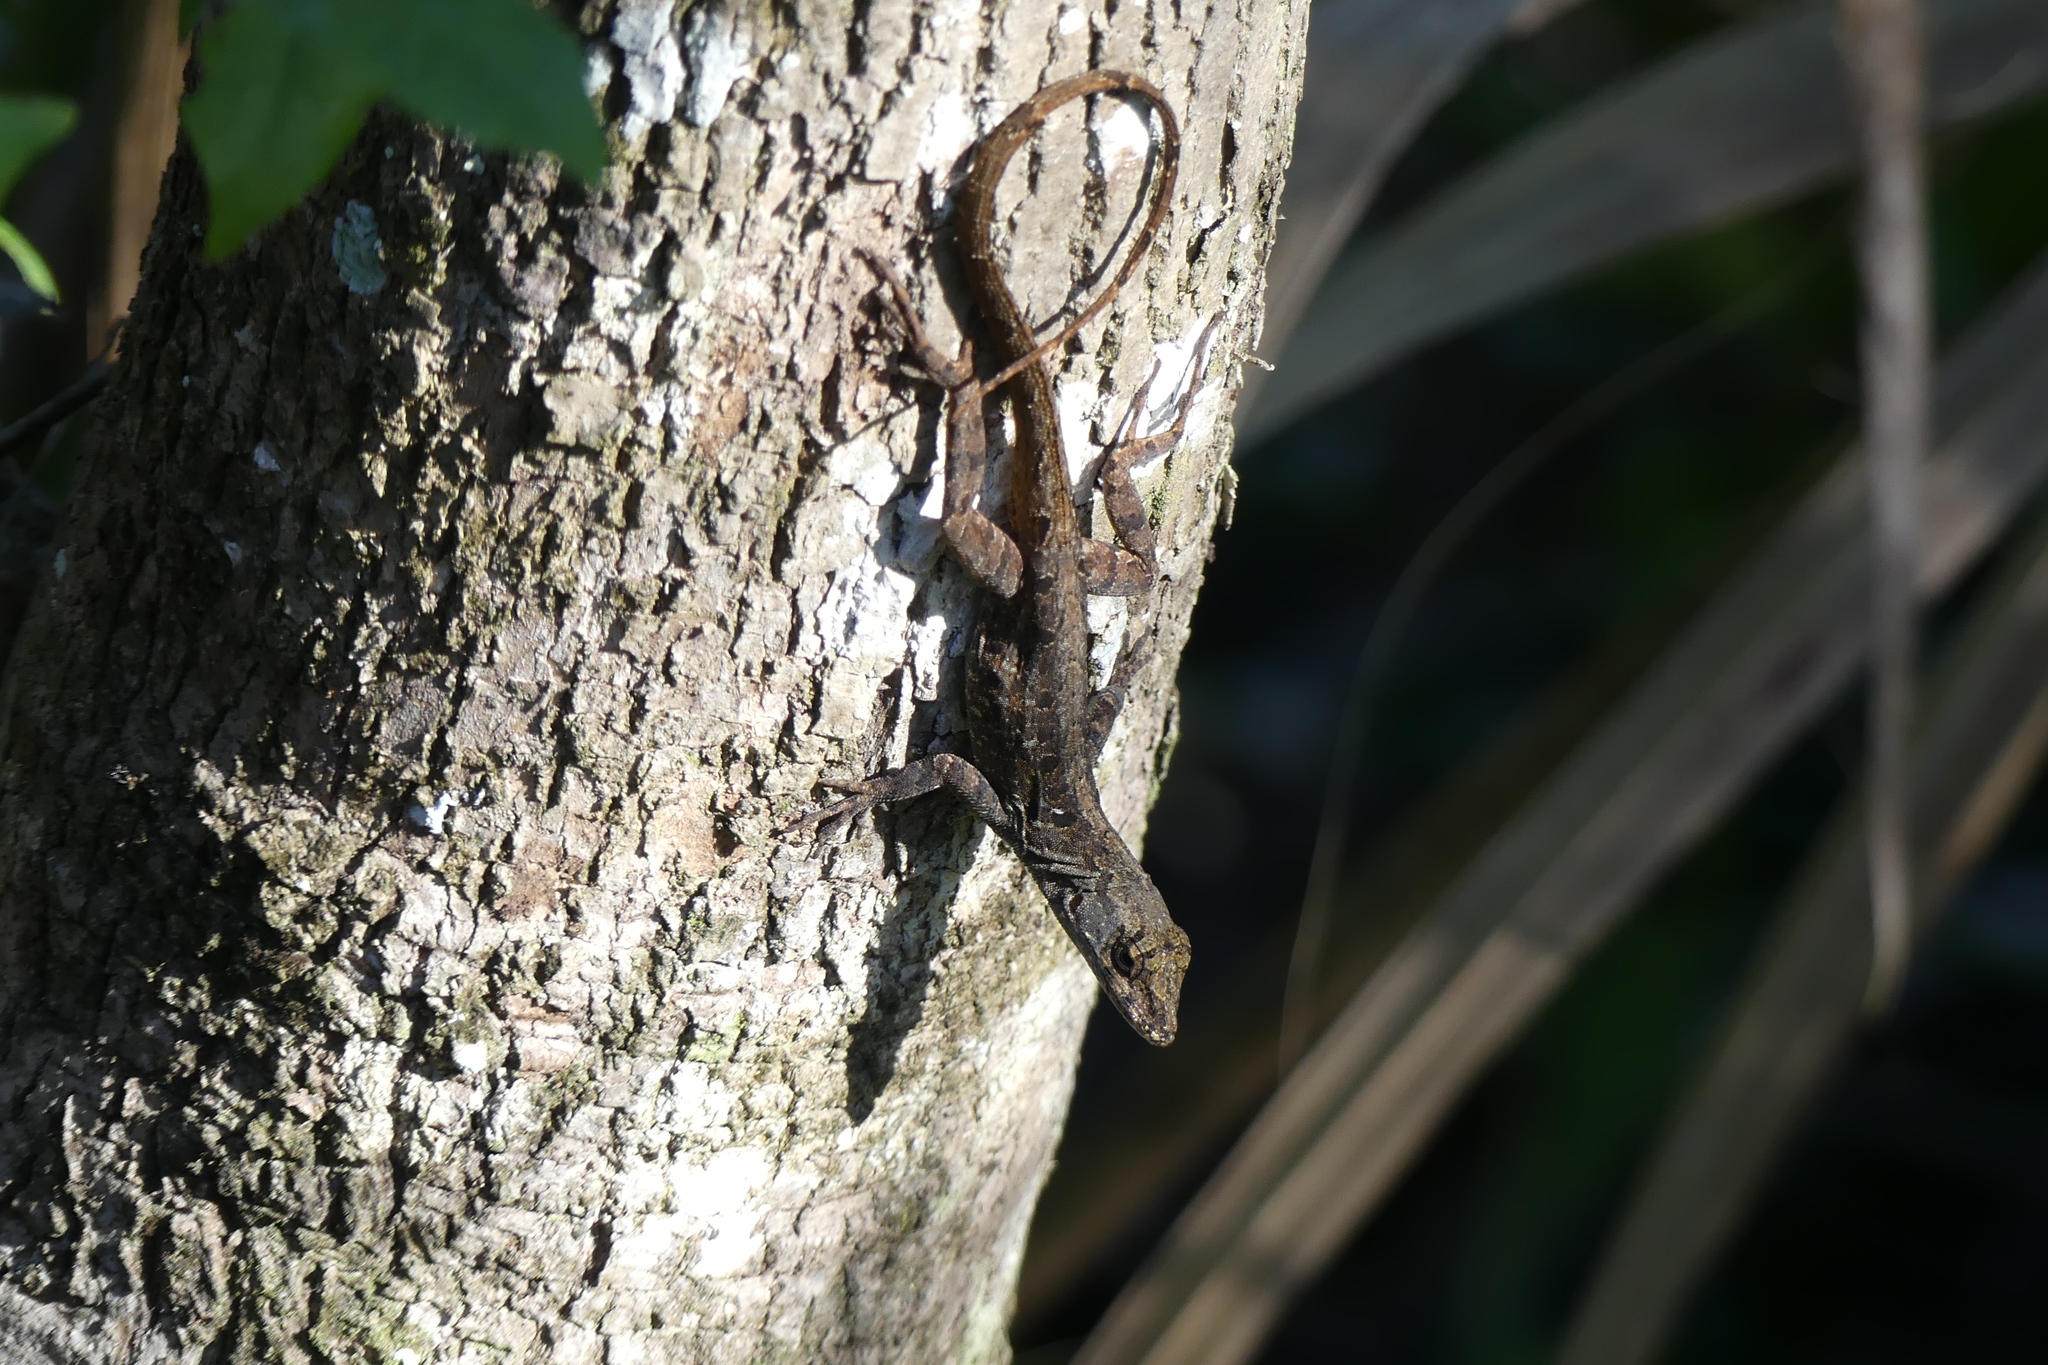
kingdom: Animalia
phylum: Chordata
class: Squamata
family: Dactyloidae
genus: Anolis
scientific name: Anolis sagrei
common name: Brown anole
